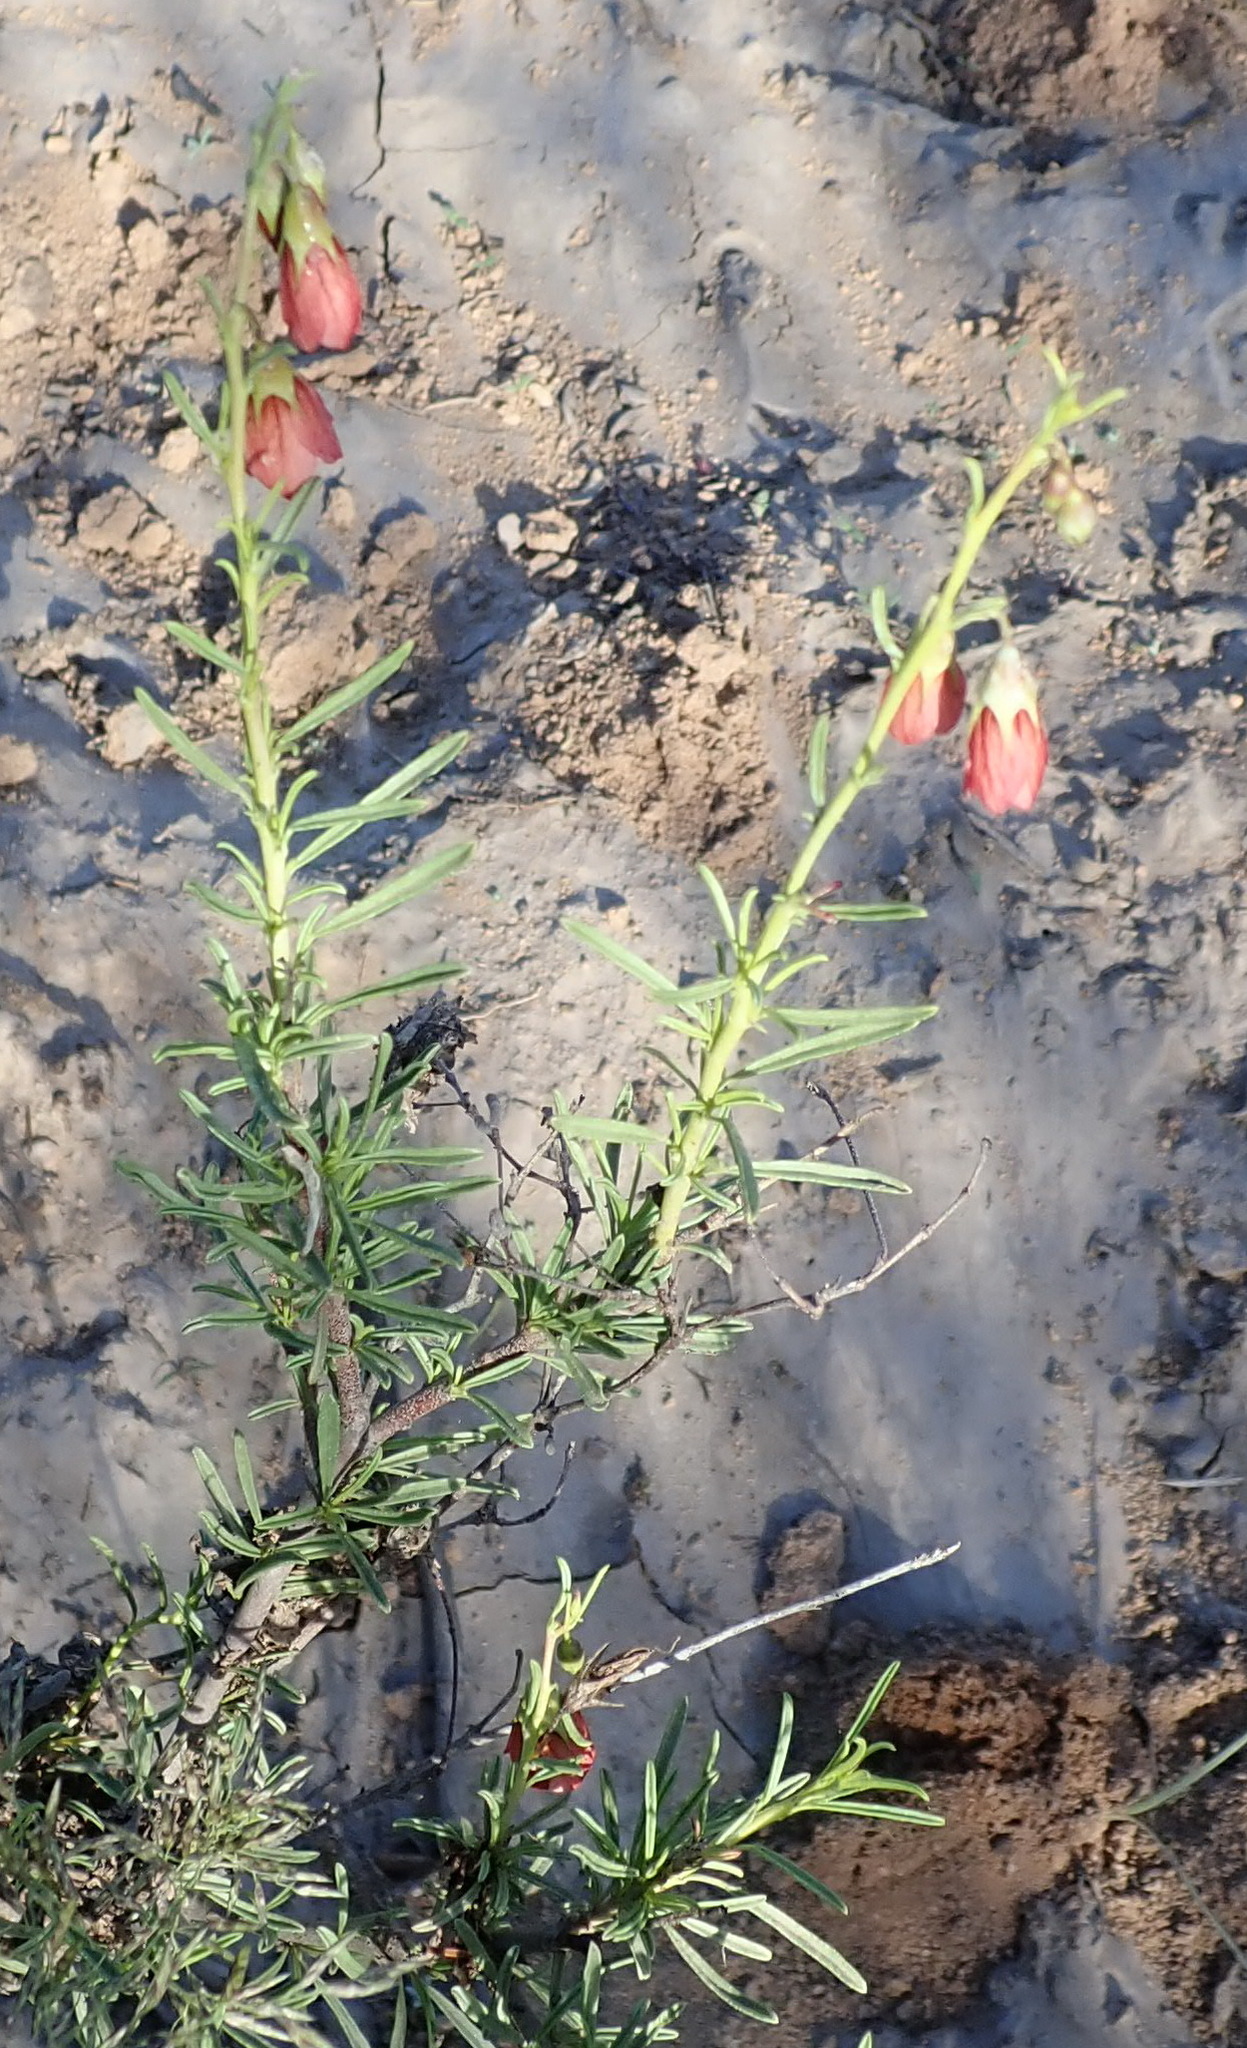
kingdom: Plantae
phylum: Tracheophyta
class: Magnoliopsida
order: Malvales
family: Malvaceae
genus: Hermannia
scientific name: Hermannia linearifolia
